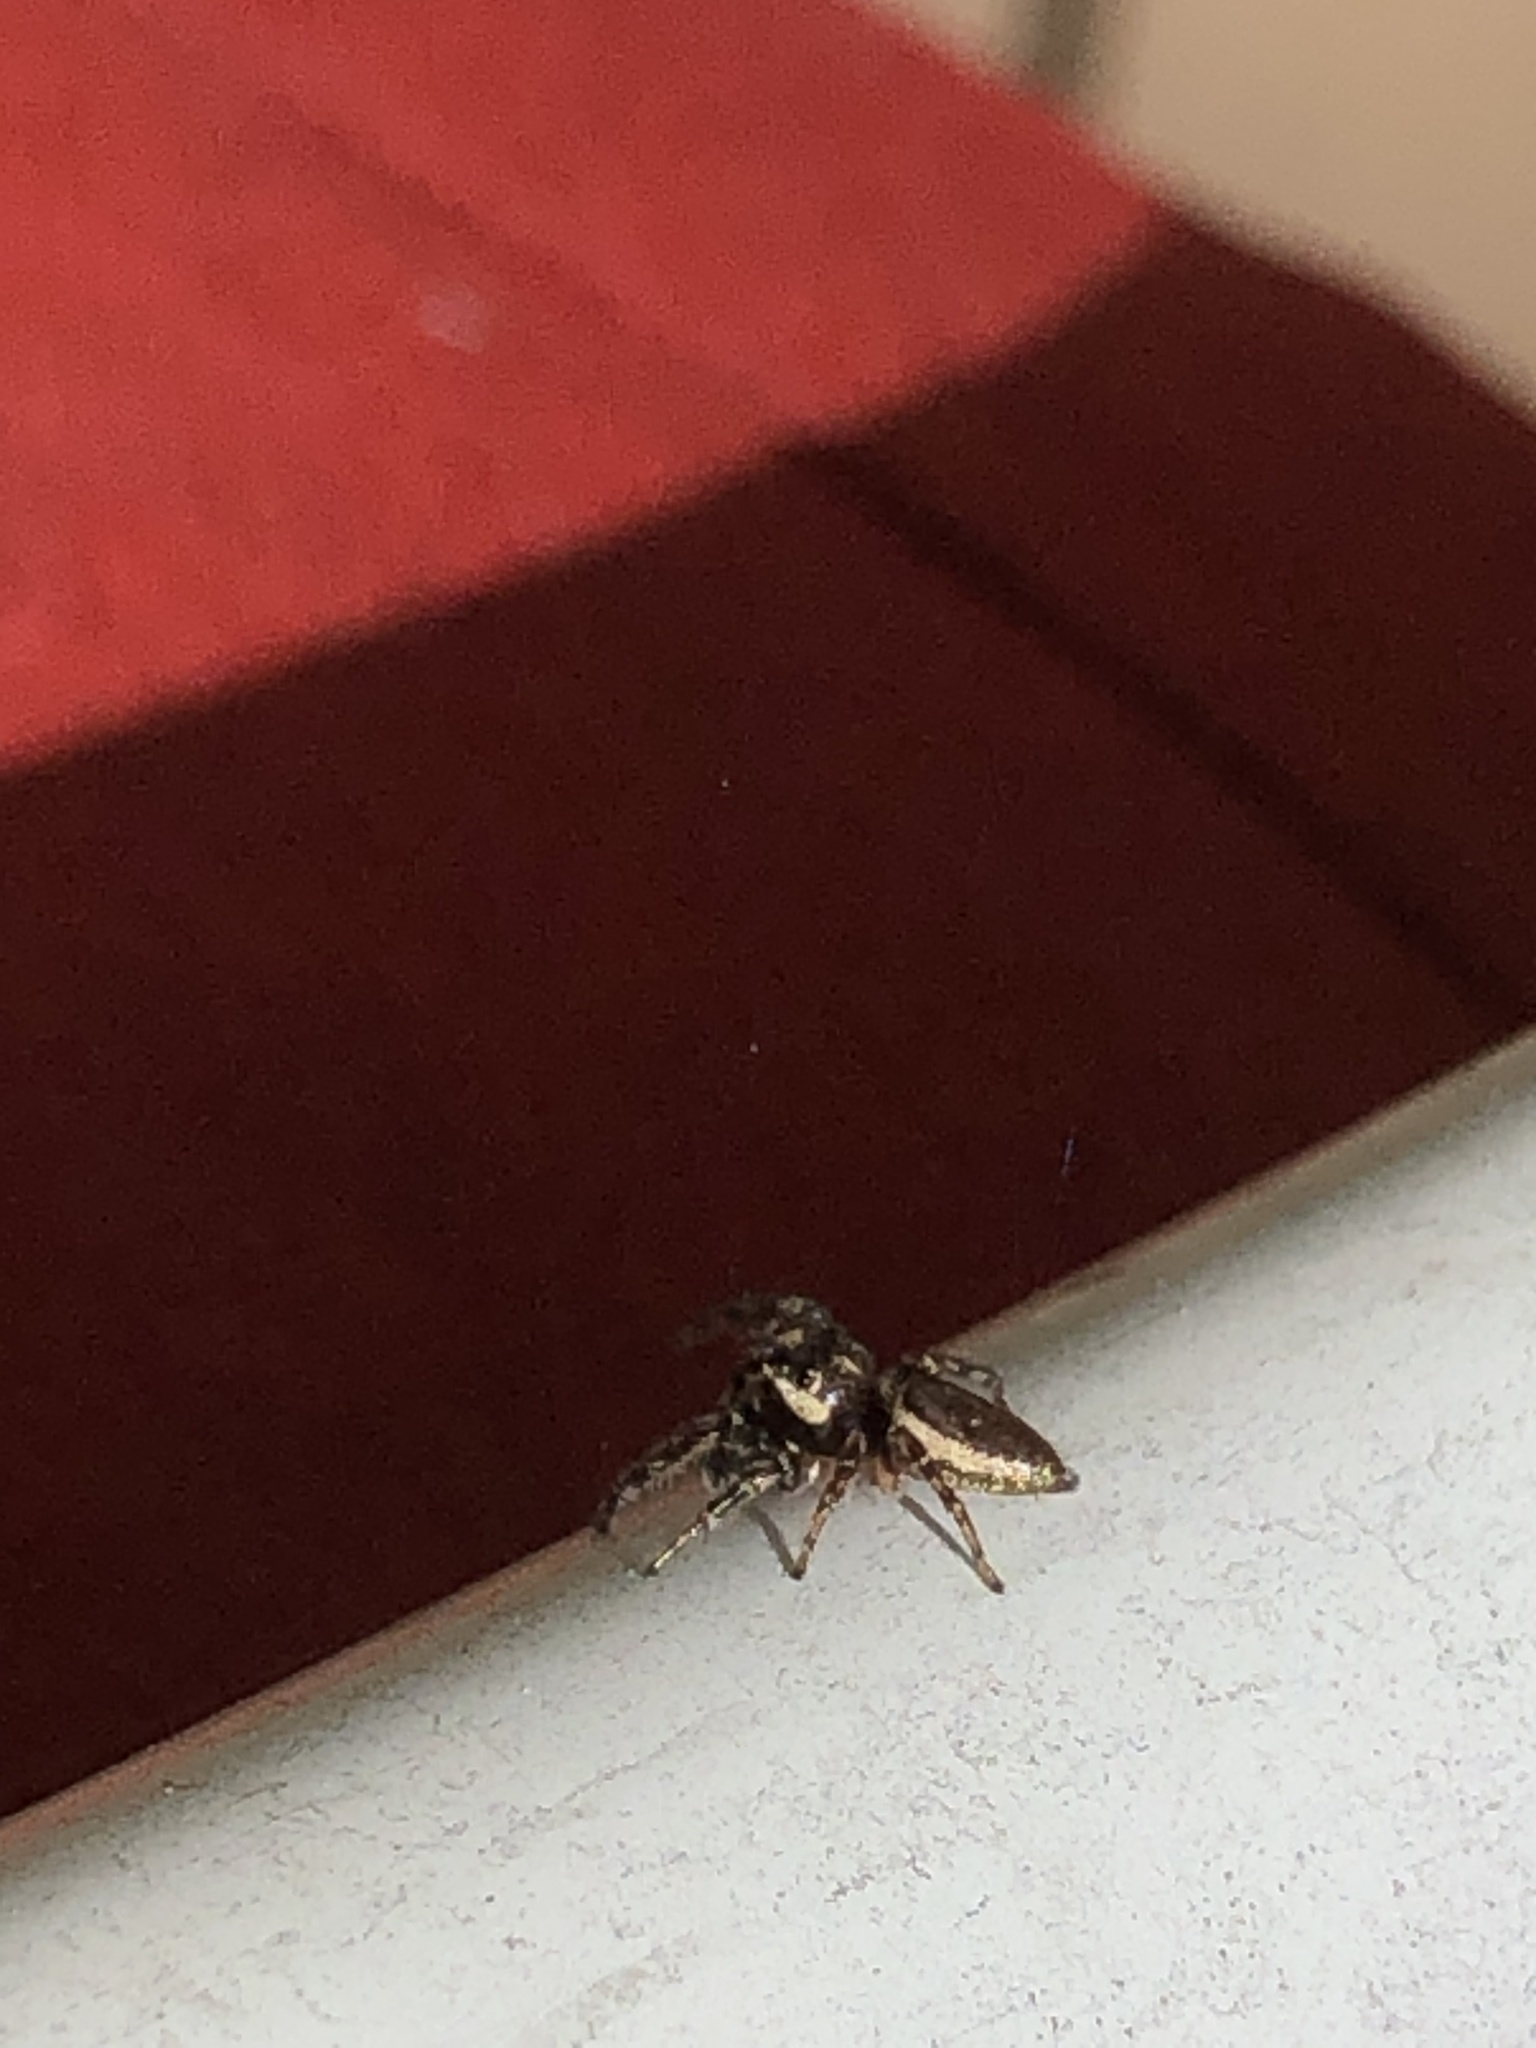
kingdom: Animalia
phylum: Arthropoda
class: Arachnida
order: Araneae
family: Salticidae
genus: Eris
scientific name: Eris militaris
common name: Bronze jumper
